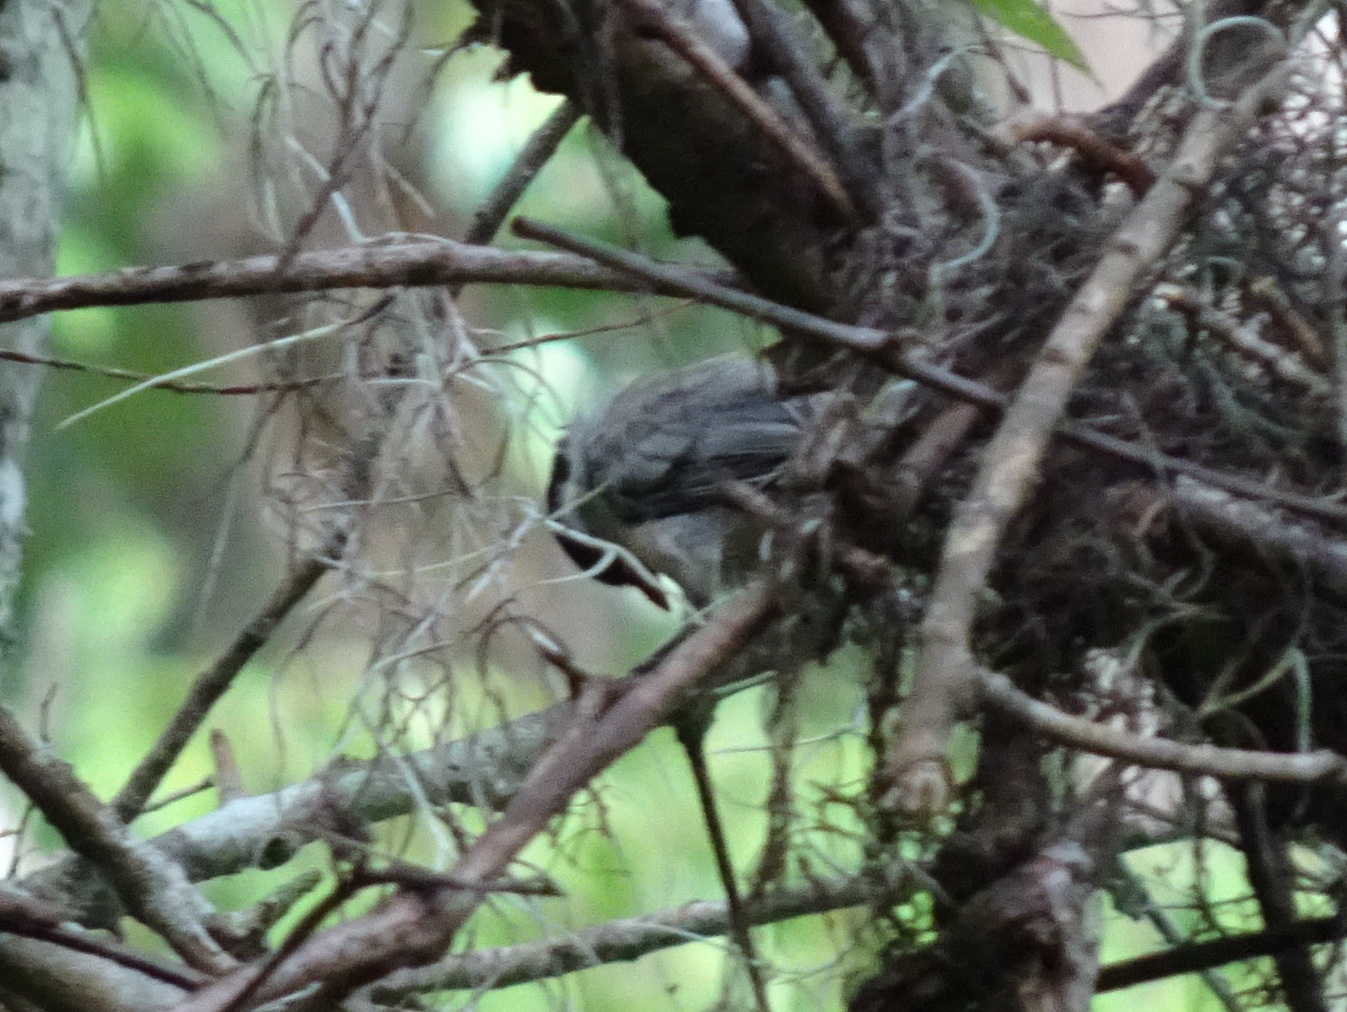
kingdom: Animalia
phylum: Chordata
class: Aves
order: Passeriformes
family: Paridae
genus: Poecile
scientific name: Poecile carolinensis
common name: Carolina chickadee
